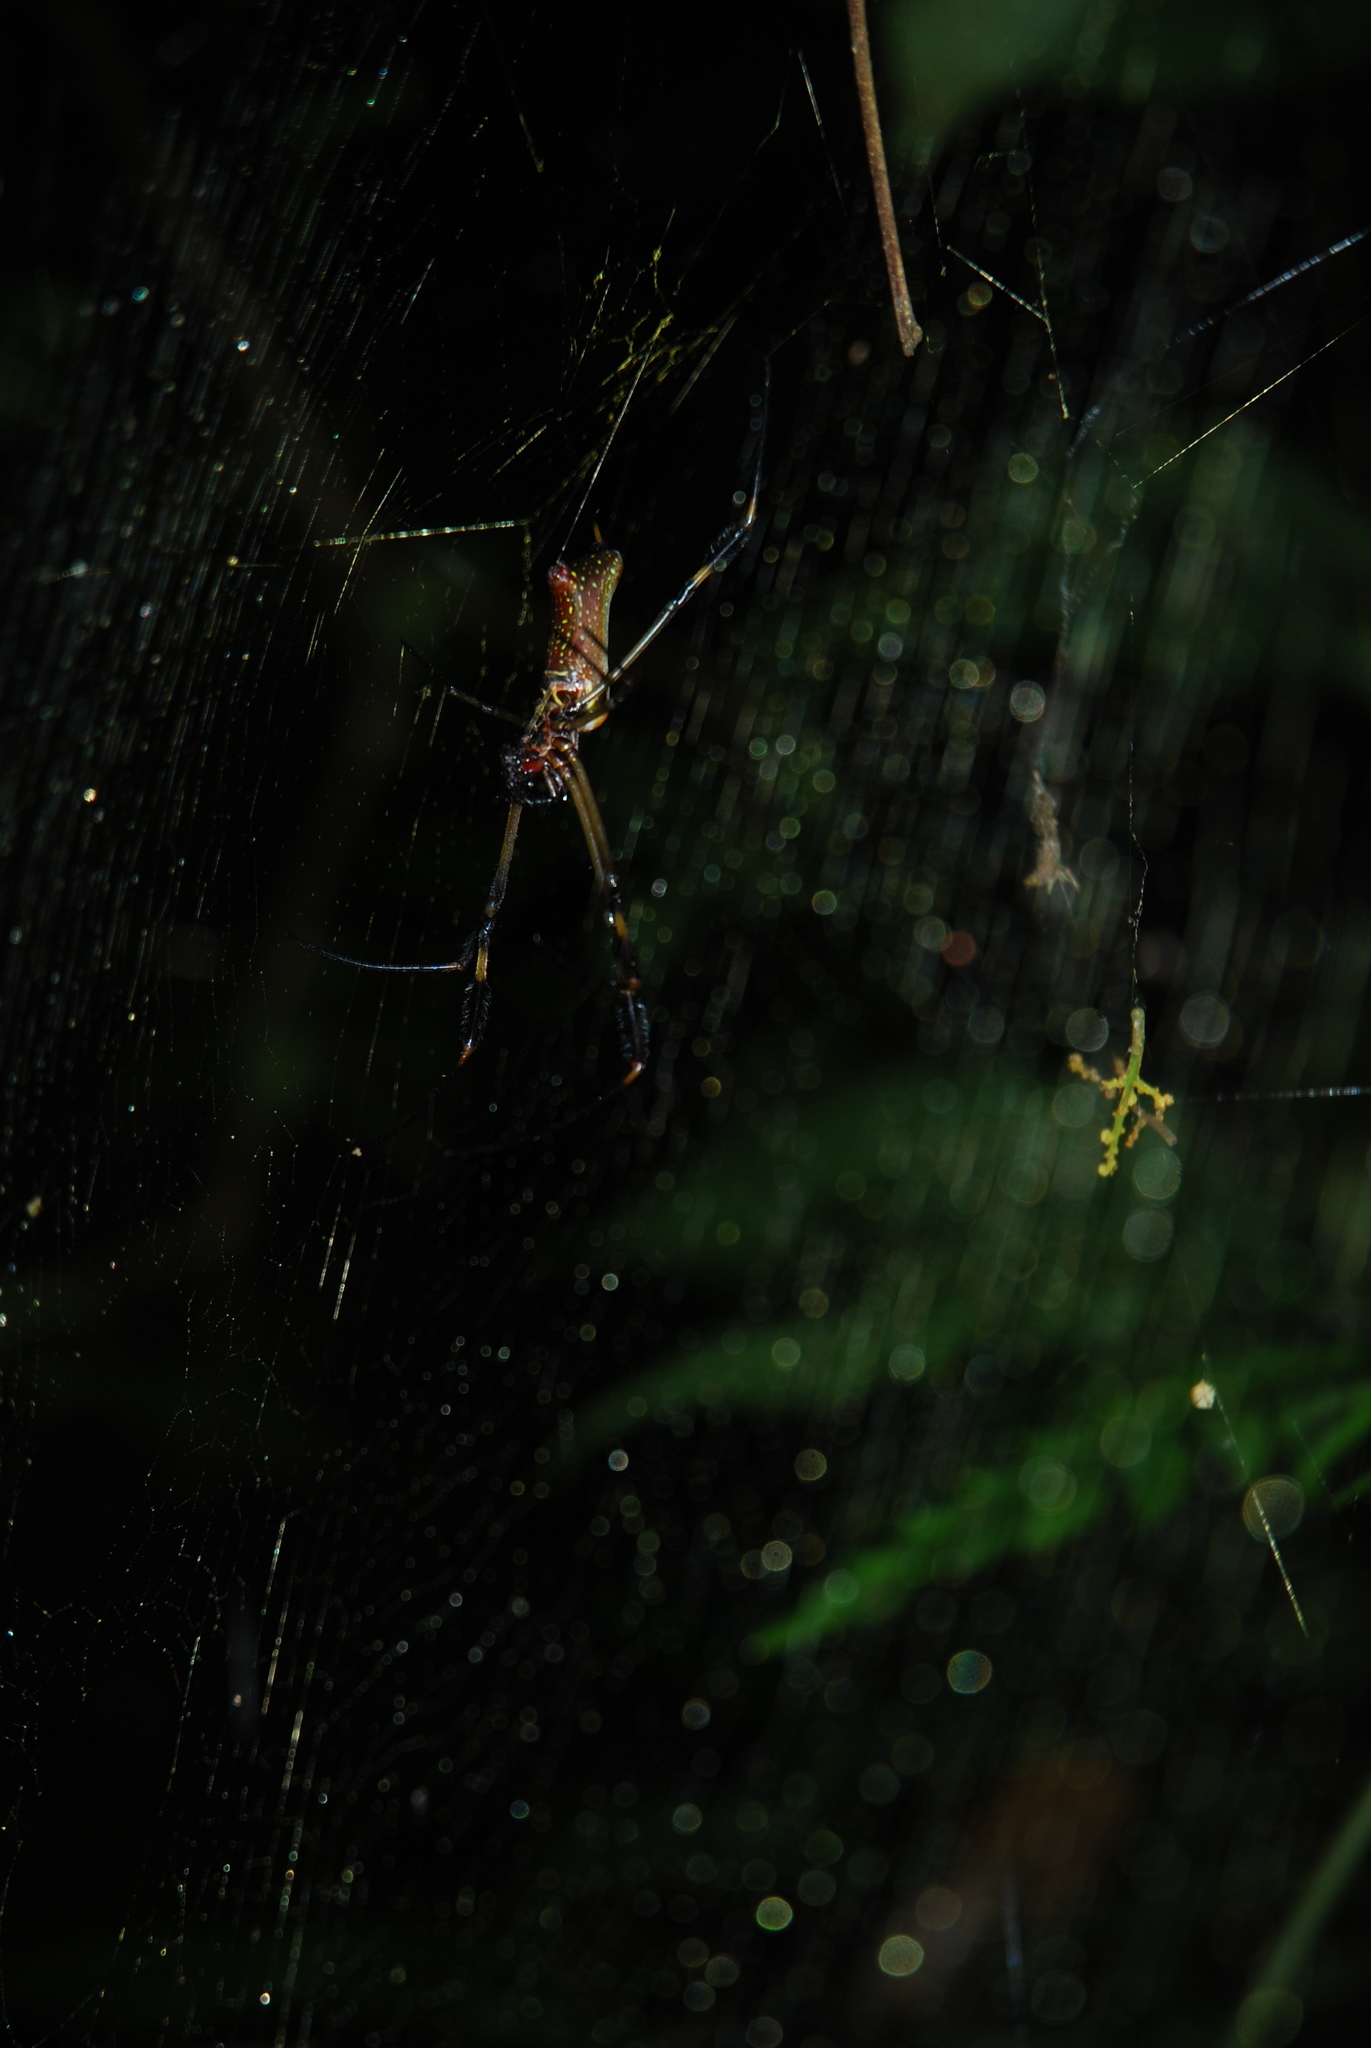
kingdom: Animalia
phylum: Arthropoda
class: Arachnida
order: Araneae
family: Araneidae
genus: Trichonephila
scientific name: Trichonephila clavipes
